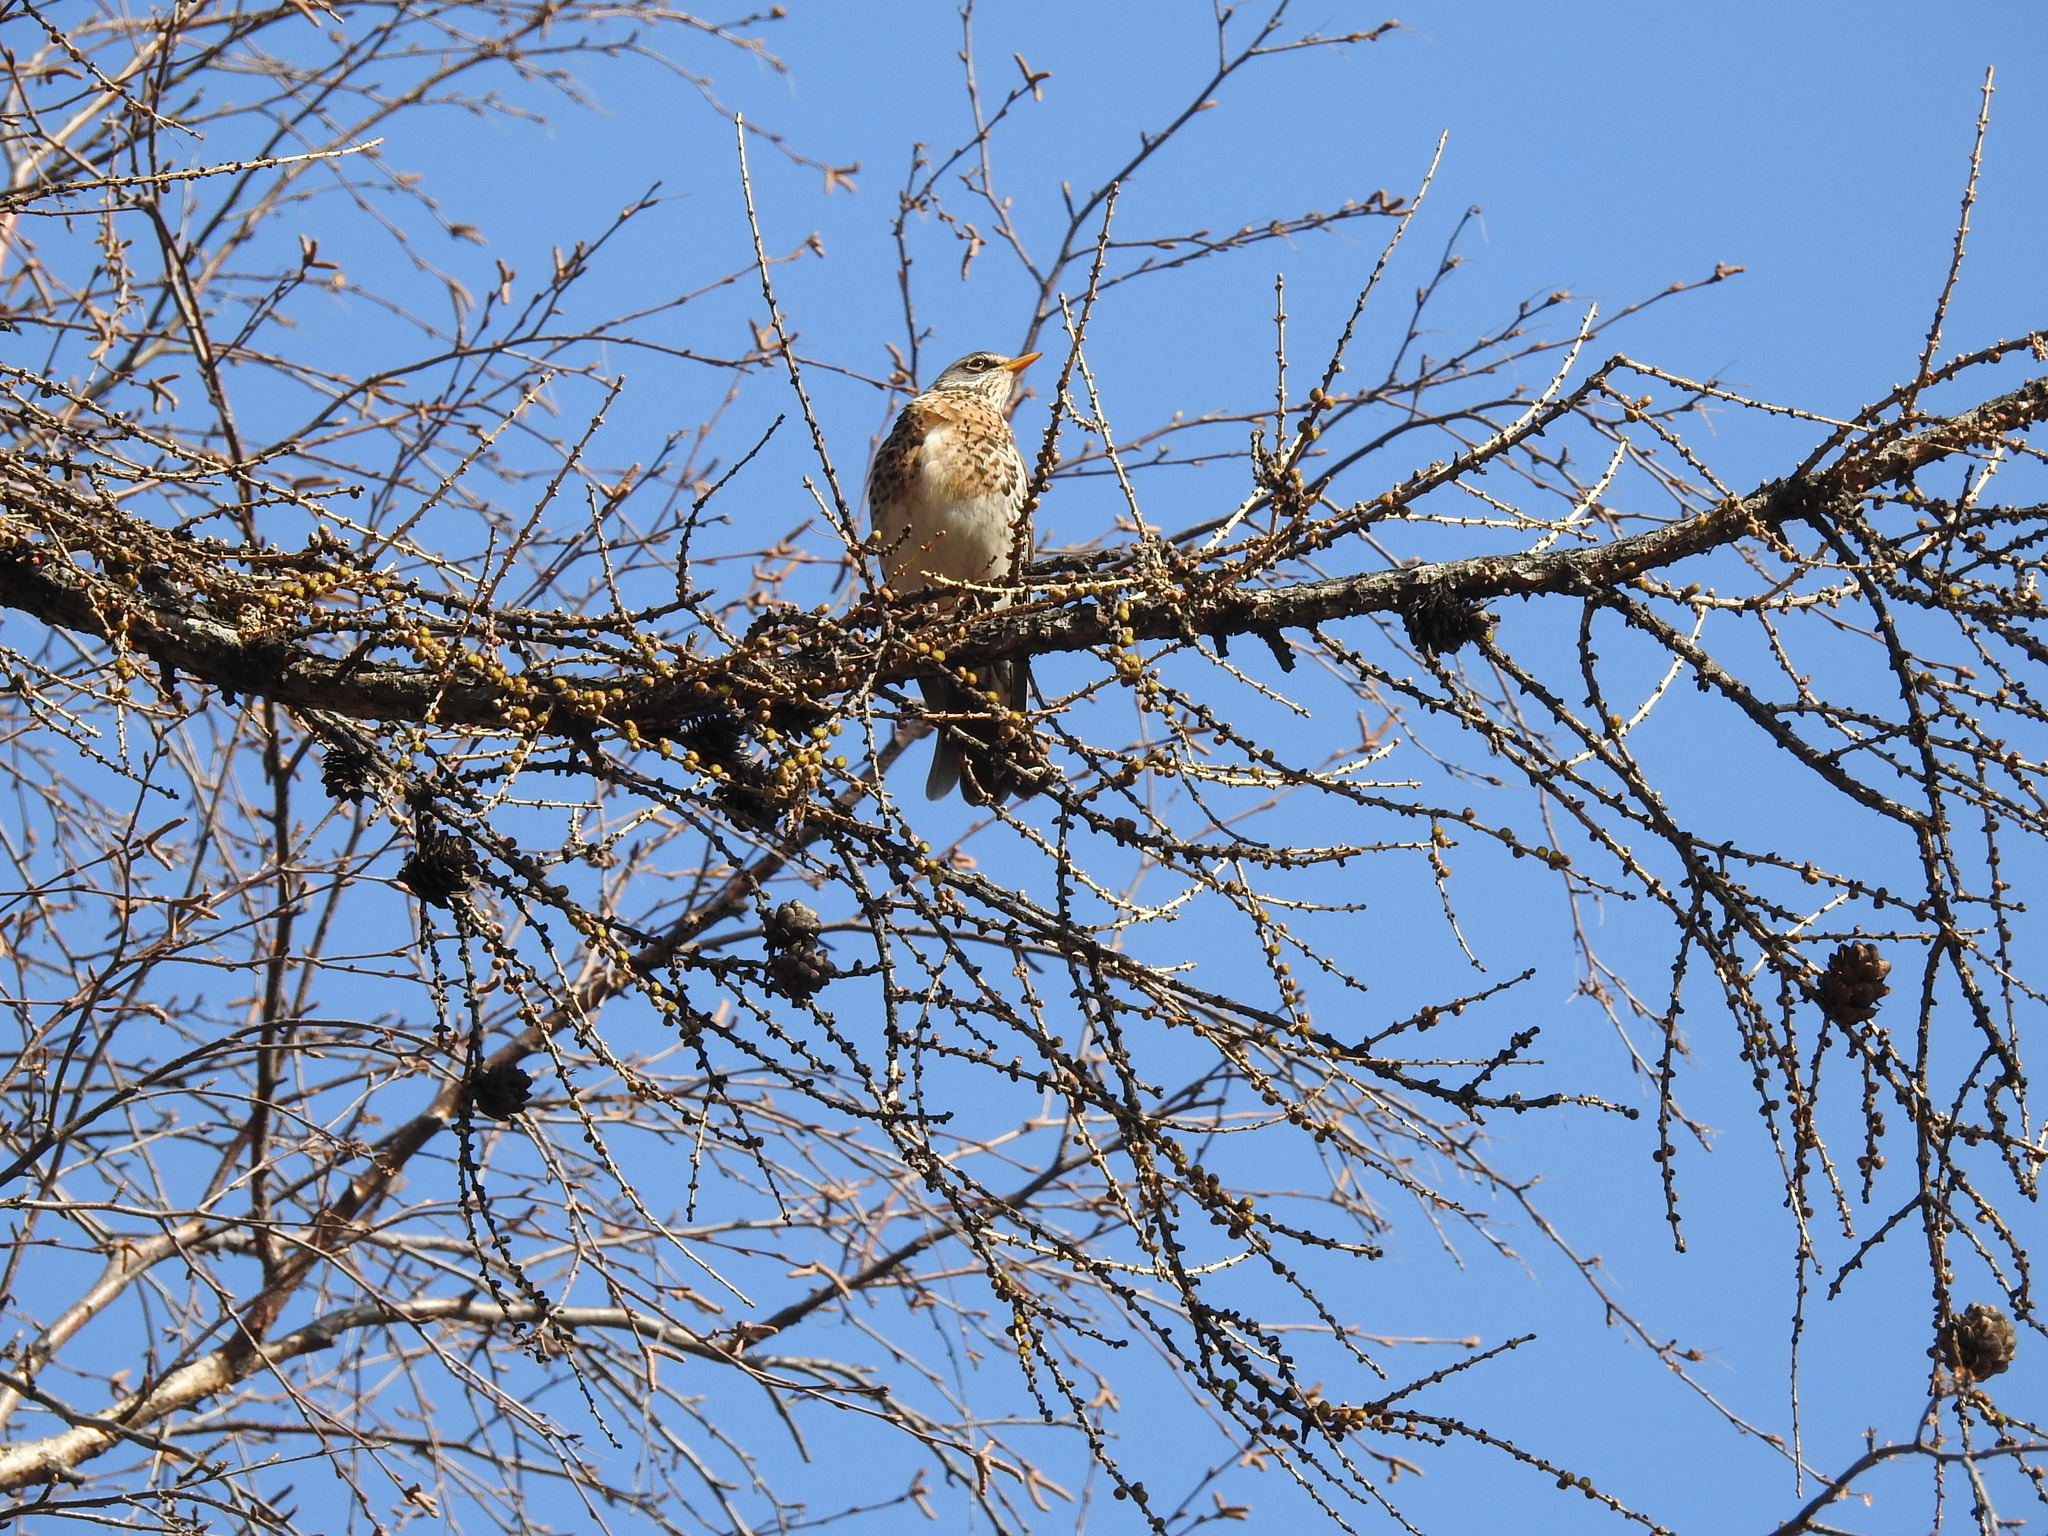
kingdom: Animalia
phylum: Chordata
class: Aves
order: Passeriformes
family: Turdidae
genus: Turdus
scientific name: Turdus pilaris
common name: Fieldfare
